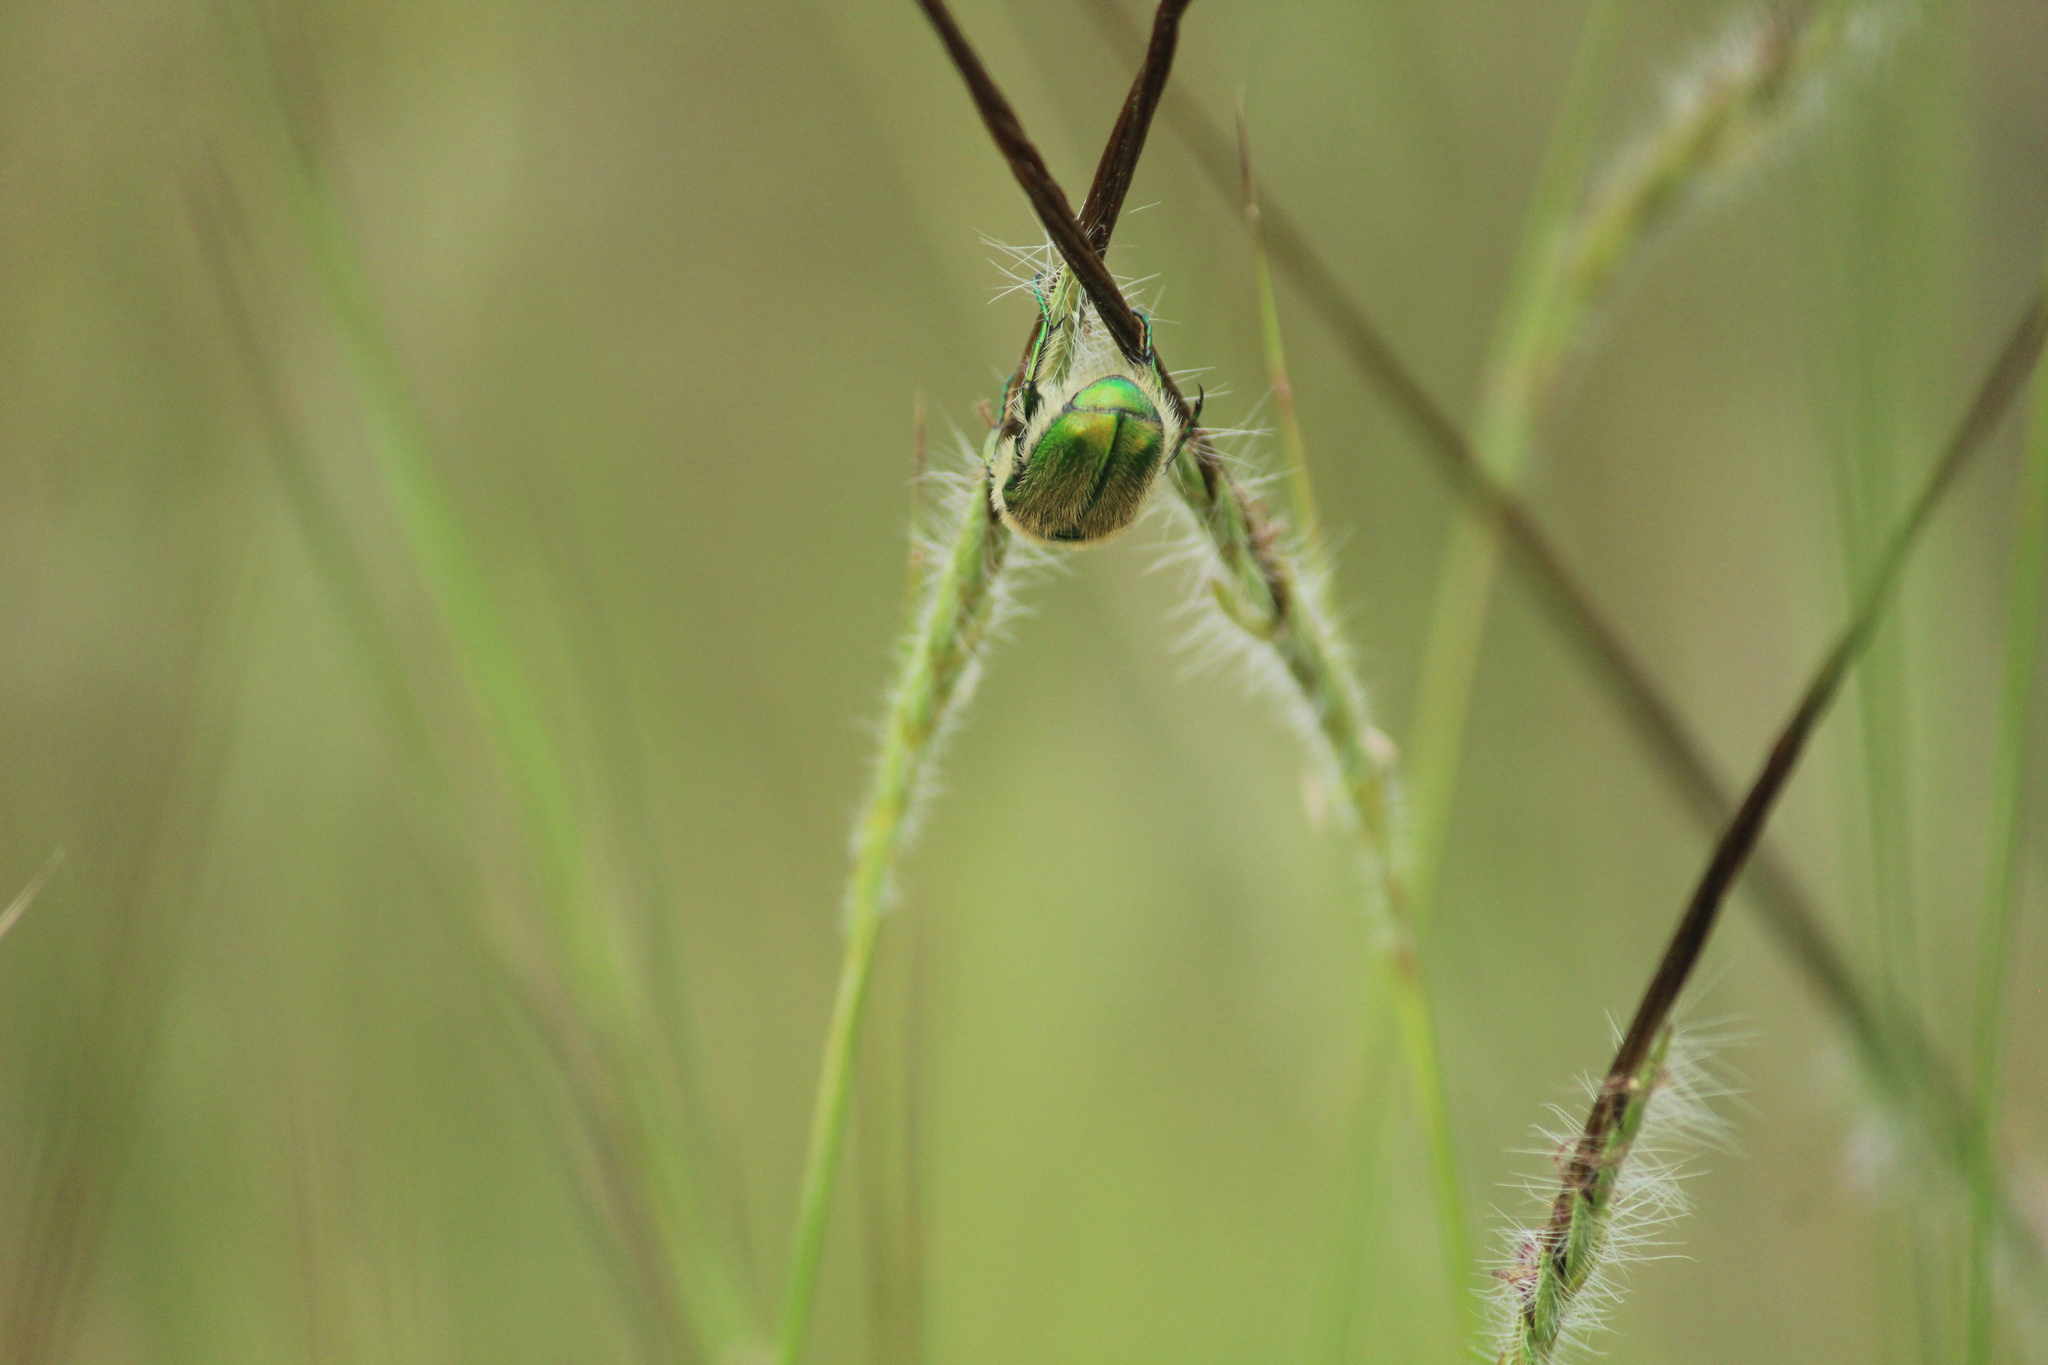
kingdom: Animalia
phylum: Arthropoda
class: Insecta
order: Coleoptera
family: Scarabaeidae
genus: Chiloloba
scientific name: Chiloloba acuta
